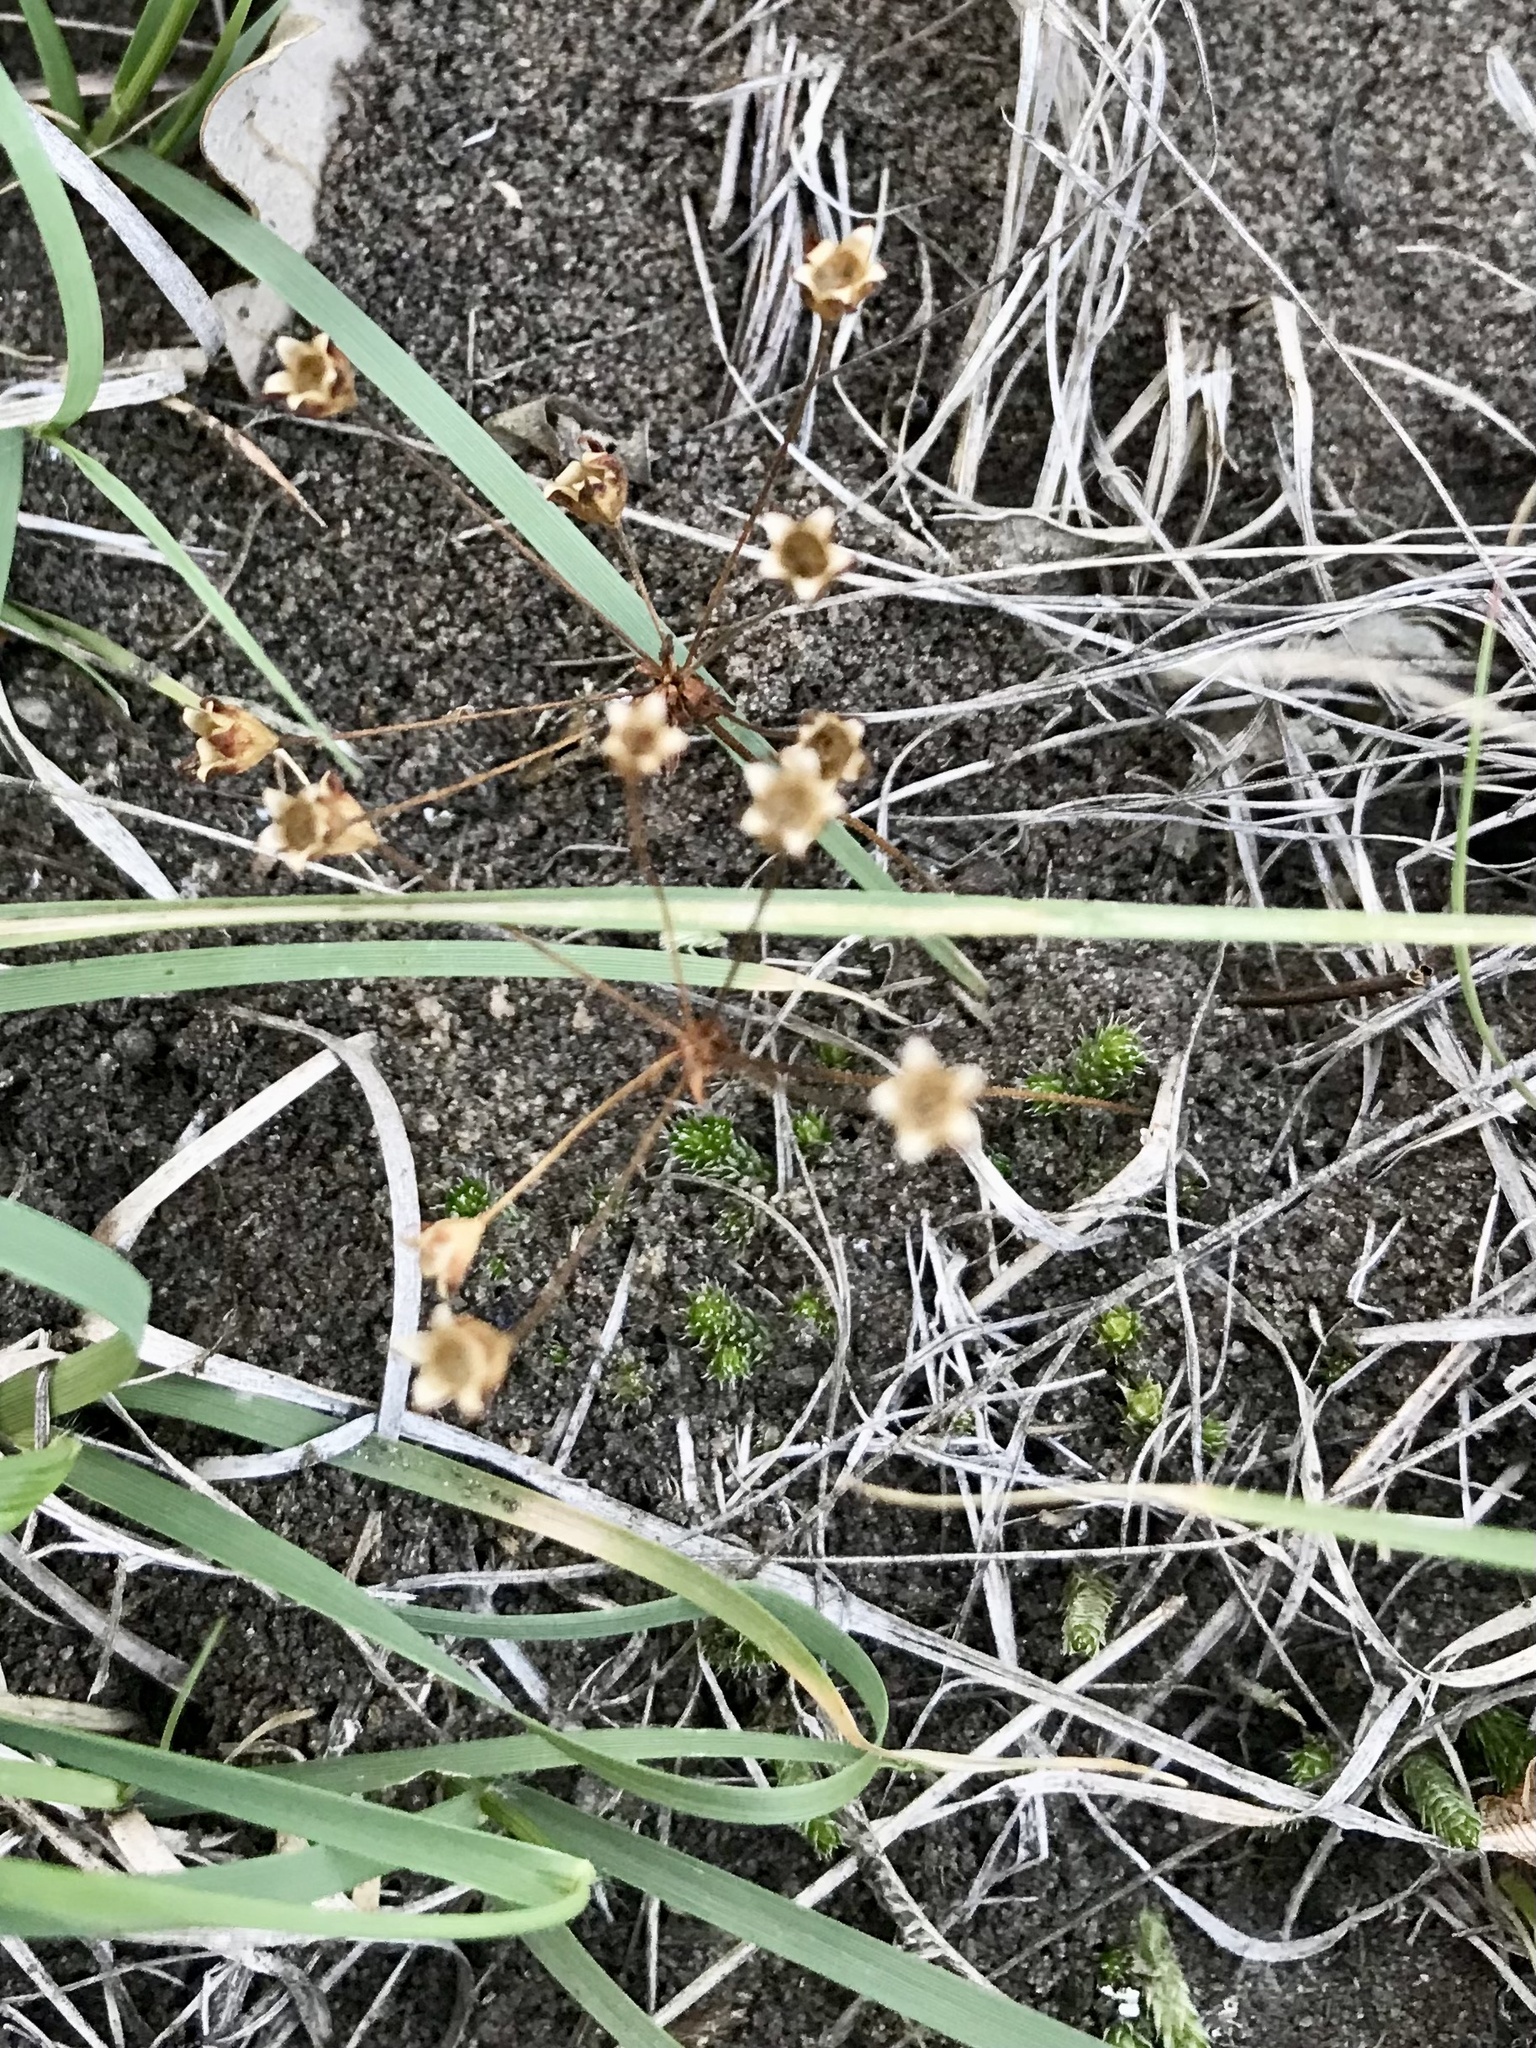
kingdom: Plantae
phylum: Tracheophyta
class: Magnoliopsida
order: Ericales
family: Primulaceae
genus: Androsace
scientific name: Androsace occidentalis
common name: West rock-jasmine
